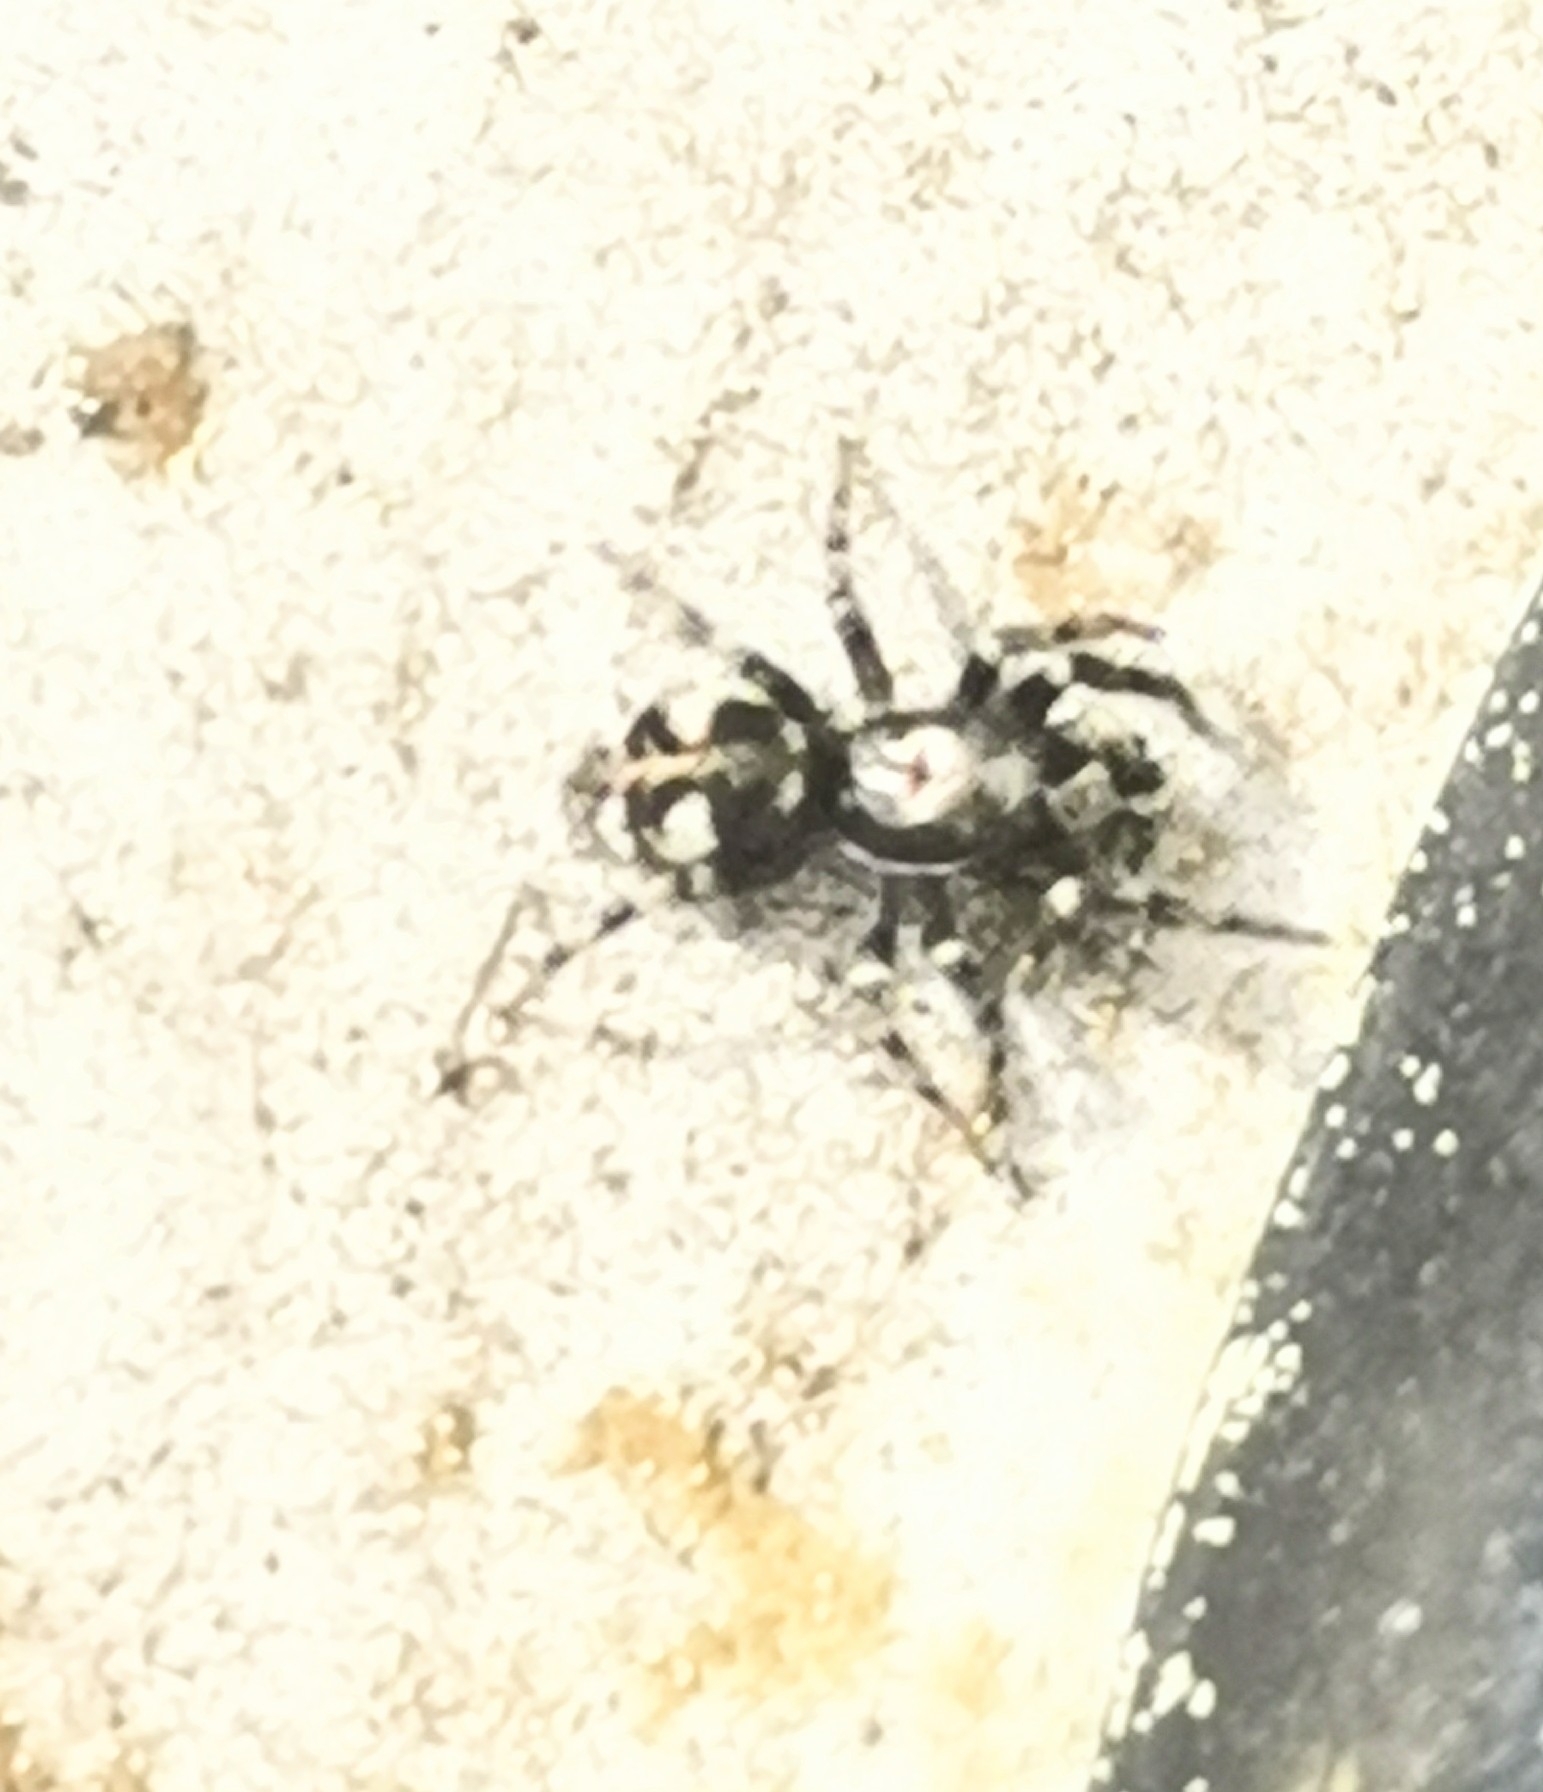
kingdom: Animalia
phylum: Arthropoda
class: Arachnida
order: Araneae
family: Salticidae
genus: Salticus
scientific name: Salticus cingulatus
